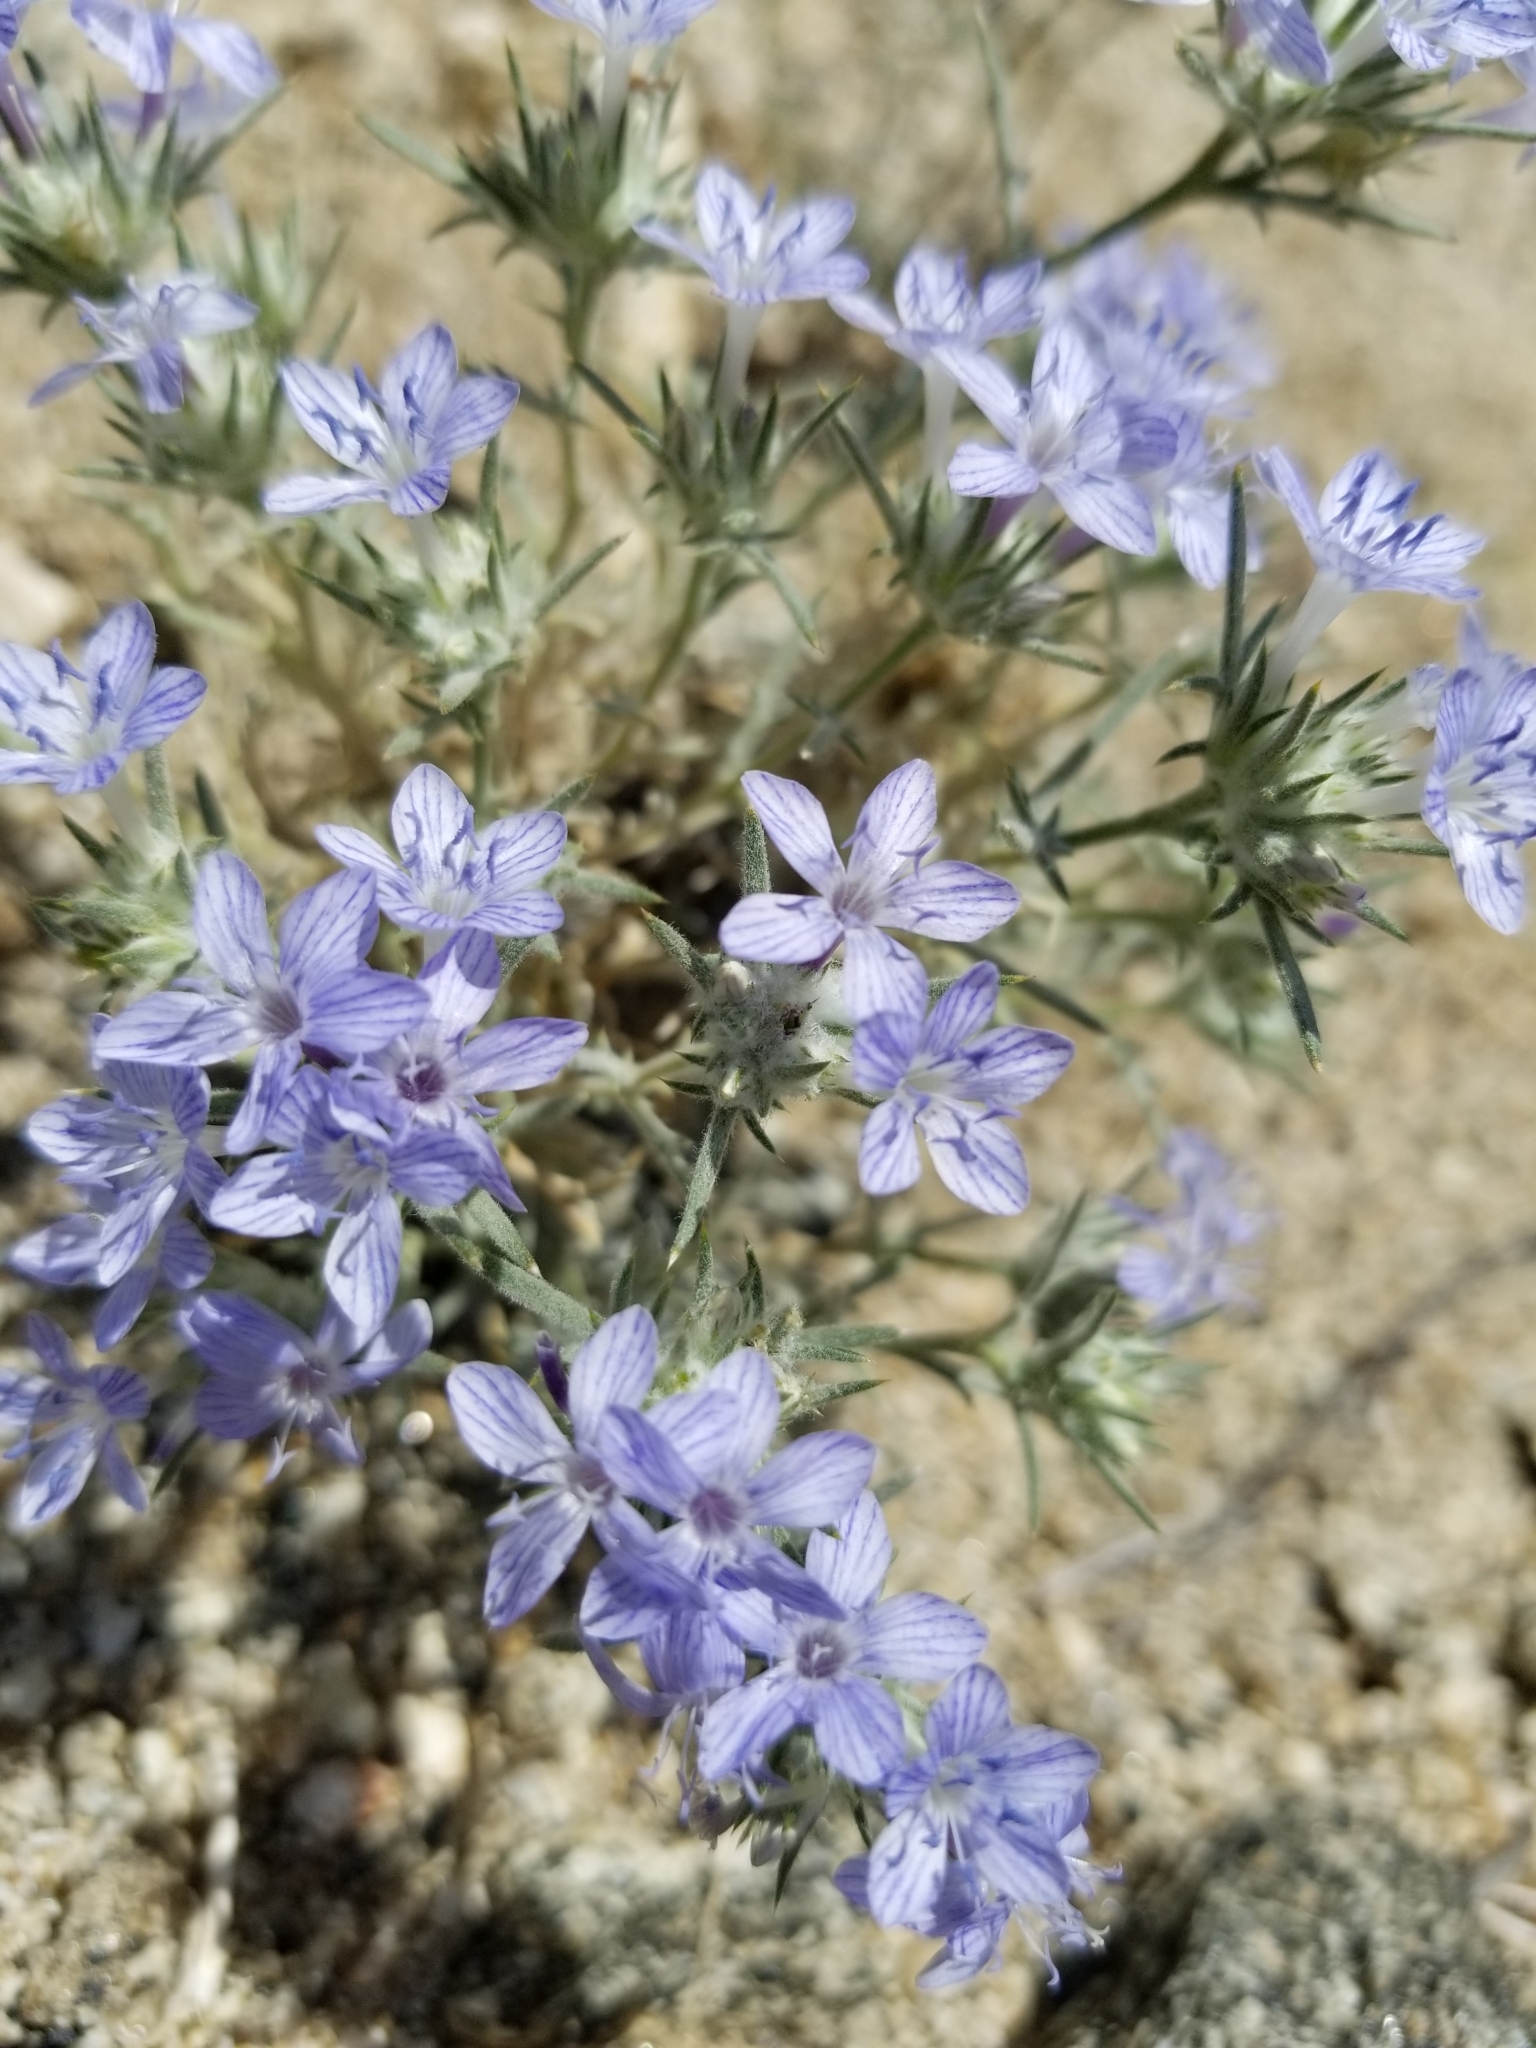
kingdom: Plantae
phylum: Tracheophyta
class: Magnoliopsida
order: Ericales
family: Polemoniaceae
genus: Eriastrum
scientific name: Eriastrum densifolium
